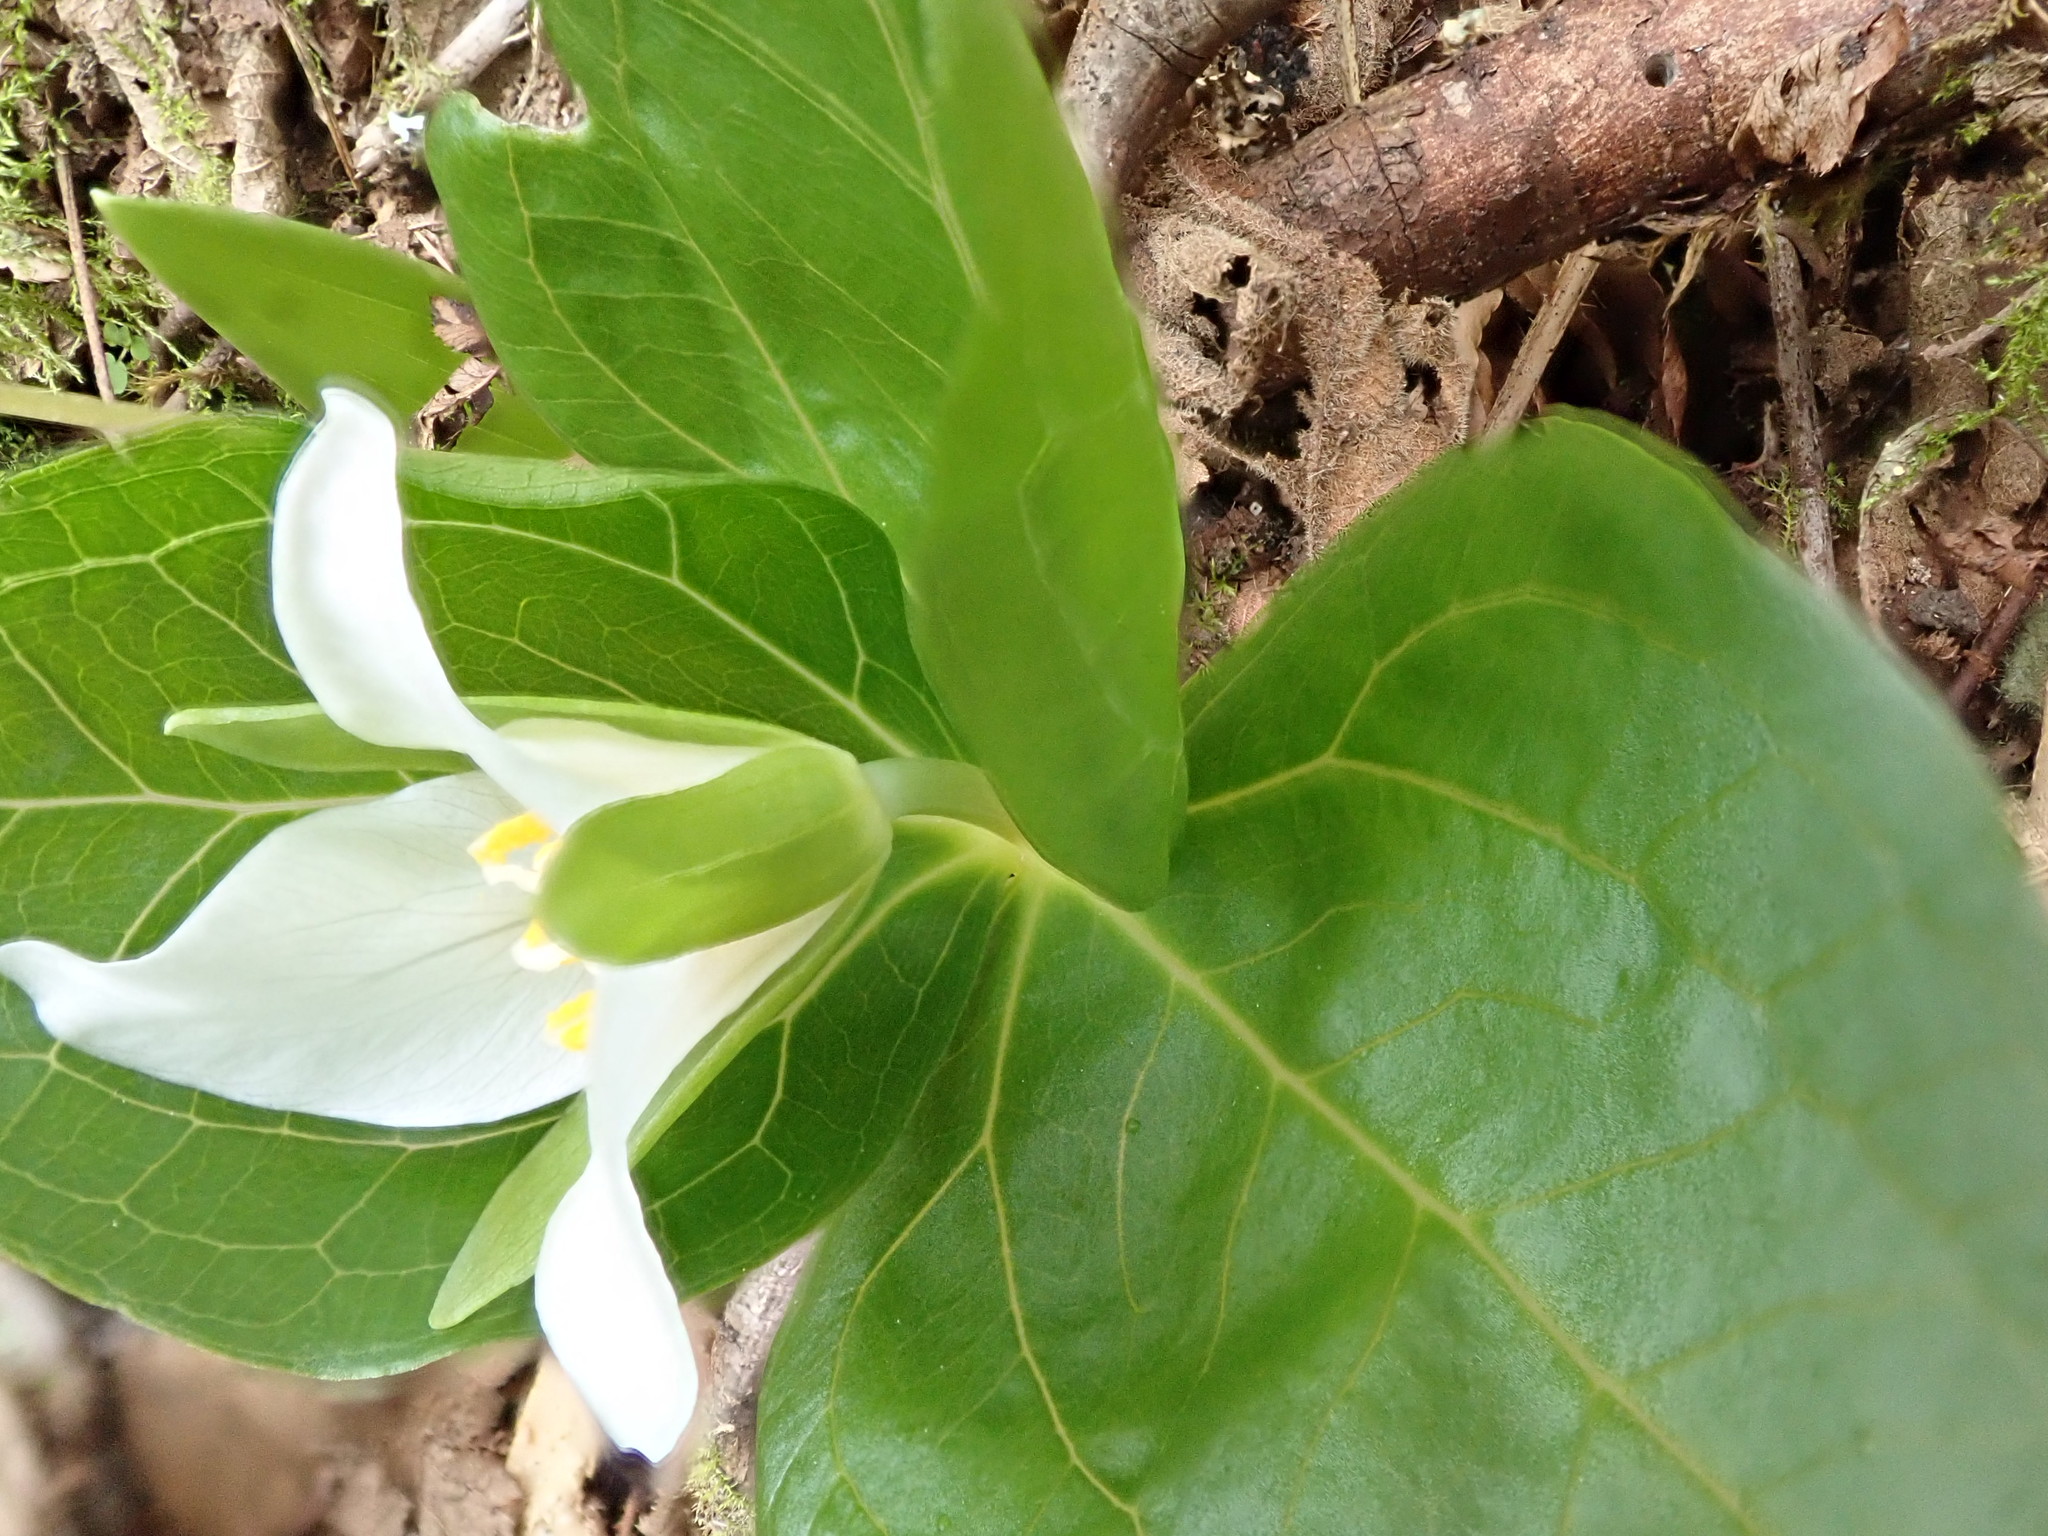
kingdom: Plantae
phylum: Tracheophyta
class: Liliopsida
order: Liliales
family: Melanthiaceae
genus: Trillium
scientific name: Trillium ovatum
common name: Pacific trillium
